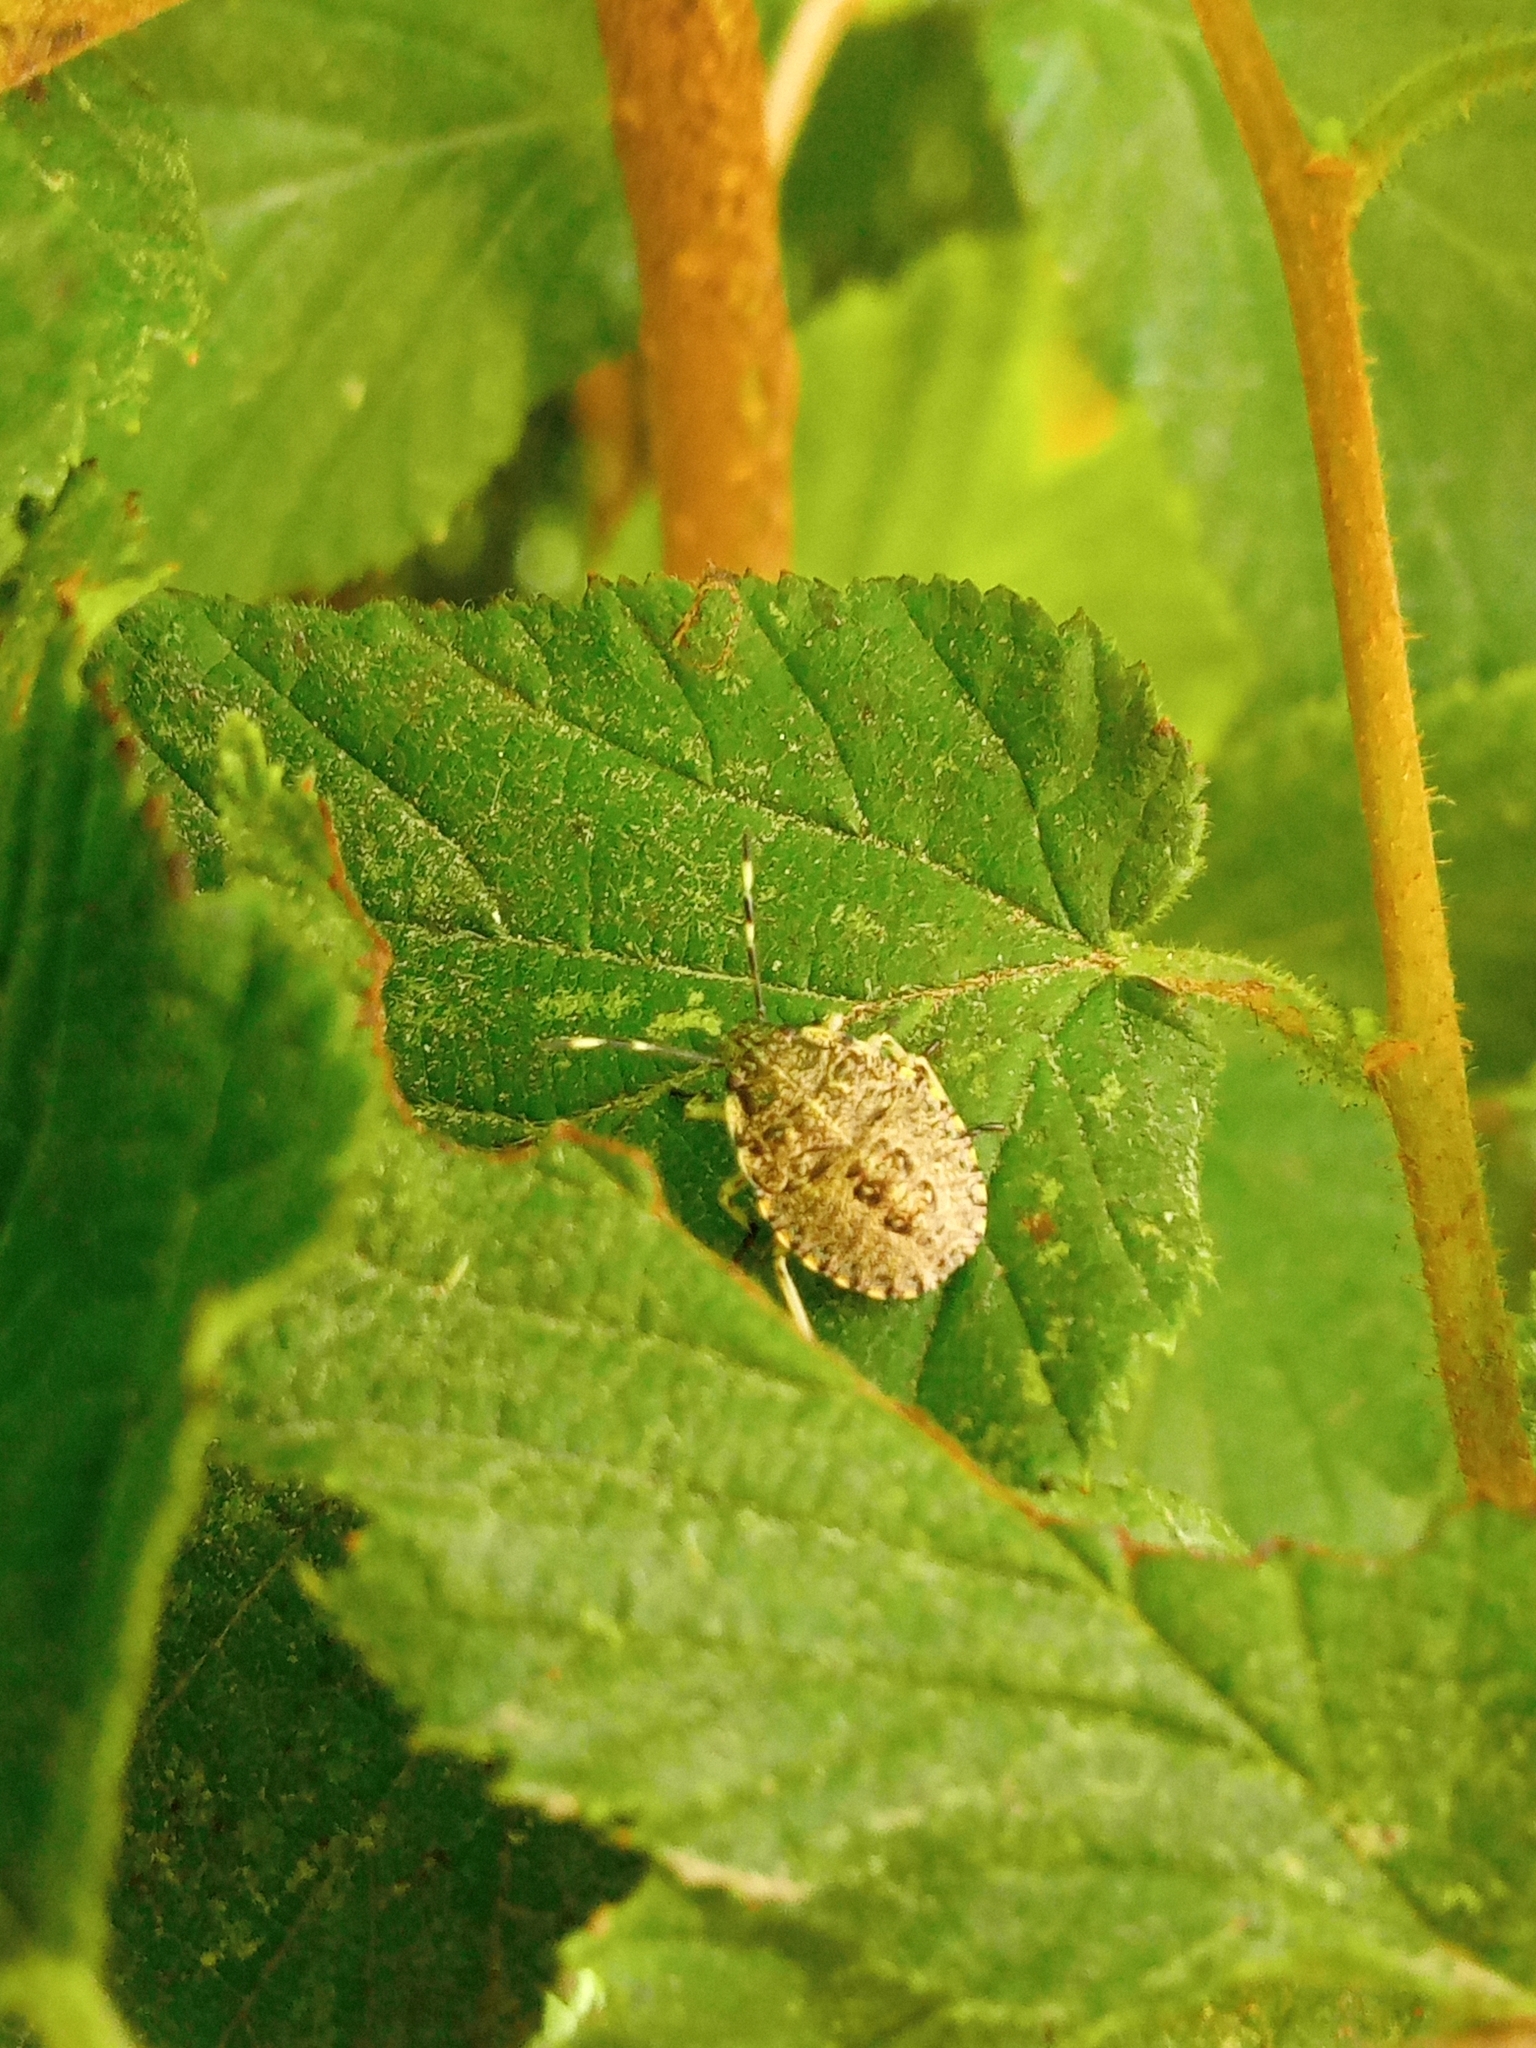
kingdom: Animalia
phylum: Arthropoda
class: Insecta
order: Hemiptera
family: Pentatomidae
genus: Rhaphigaster
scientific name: Rhaphigaster nebulosa
